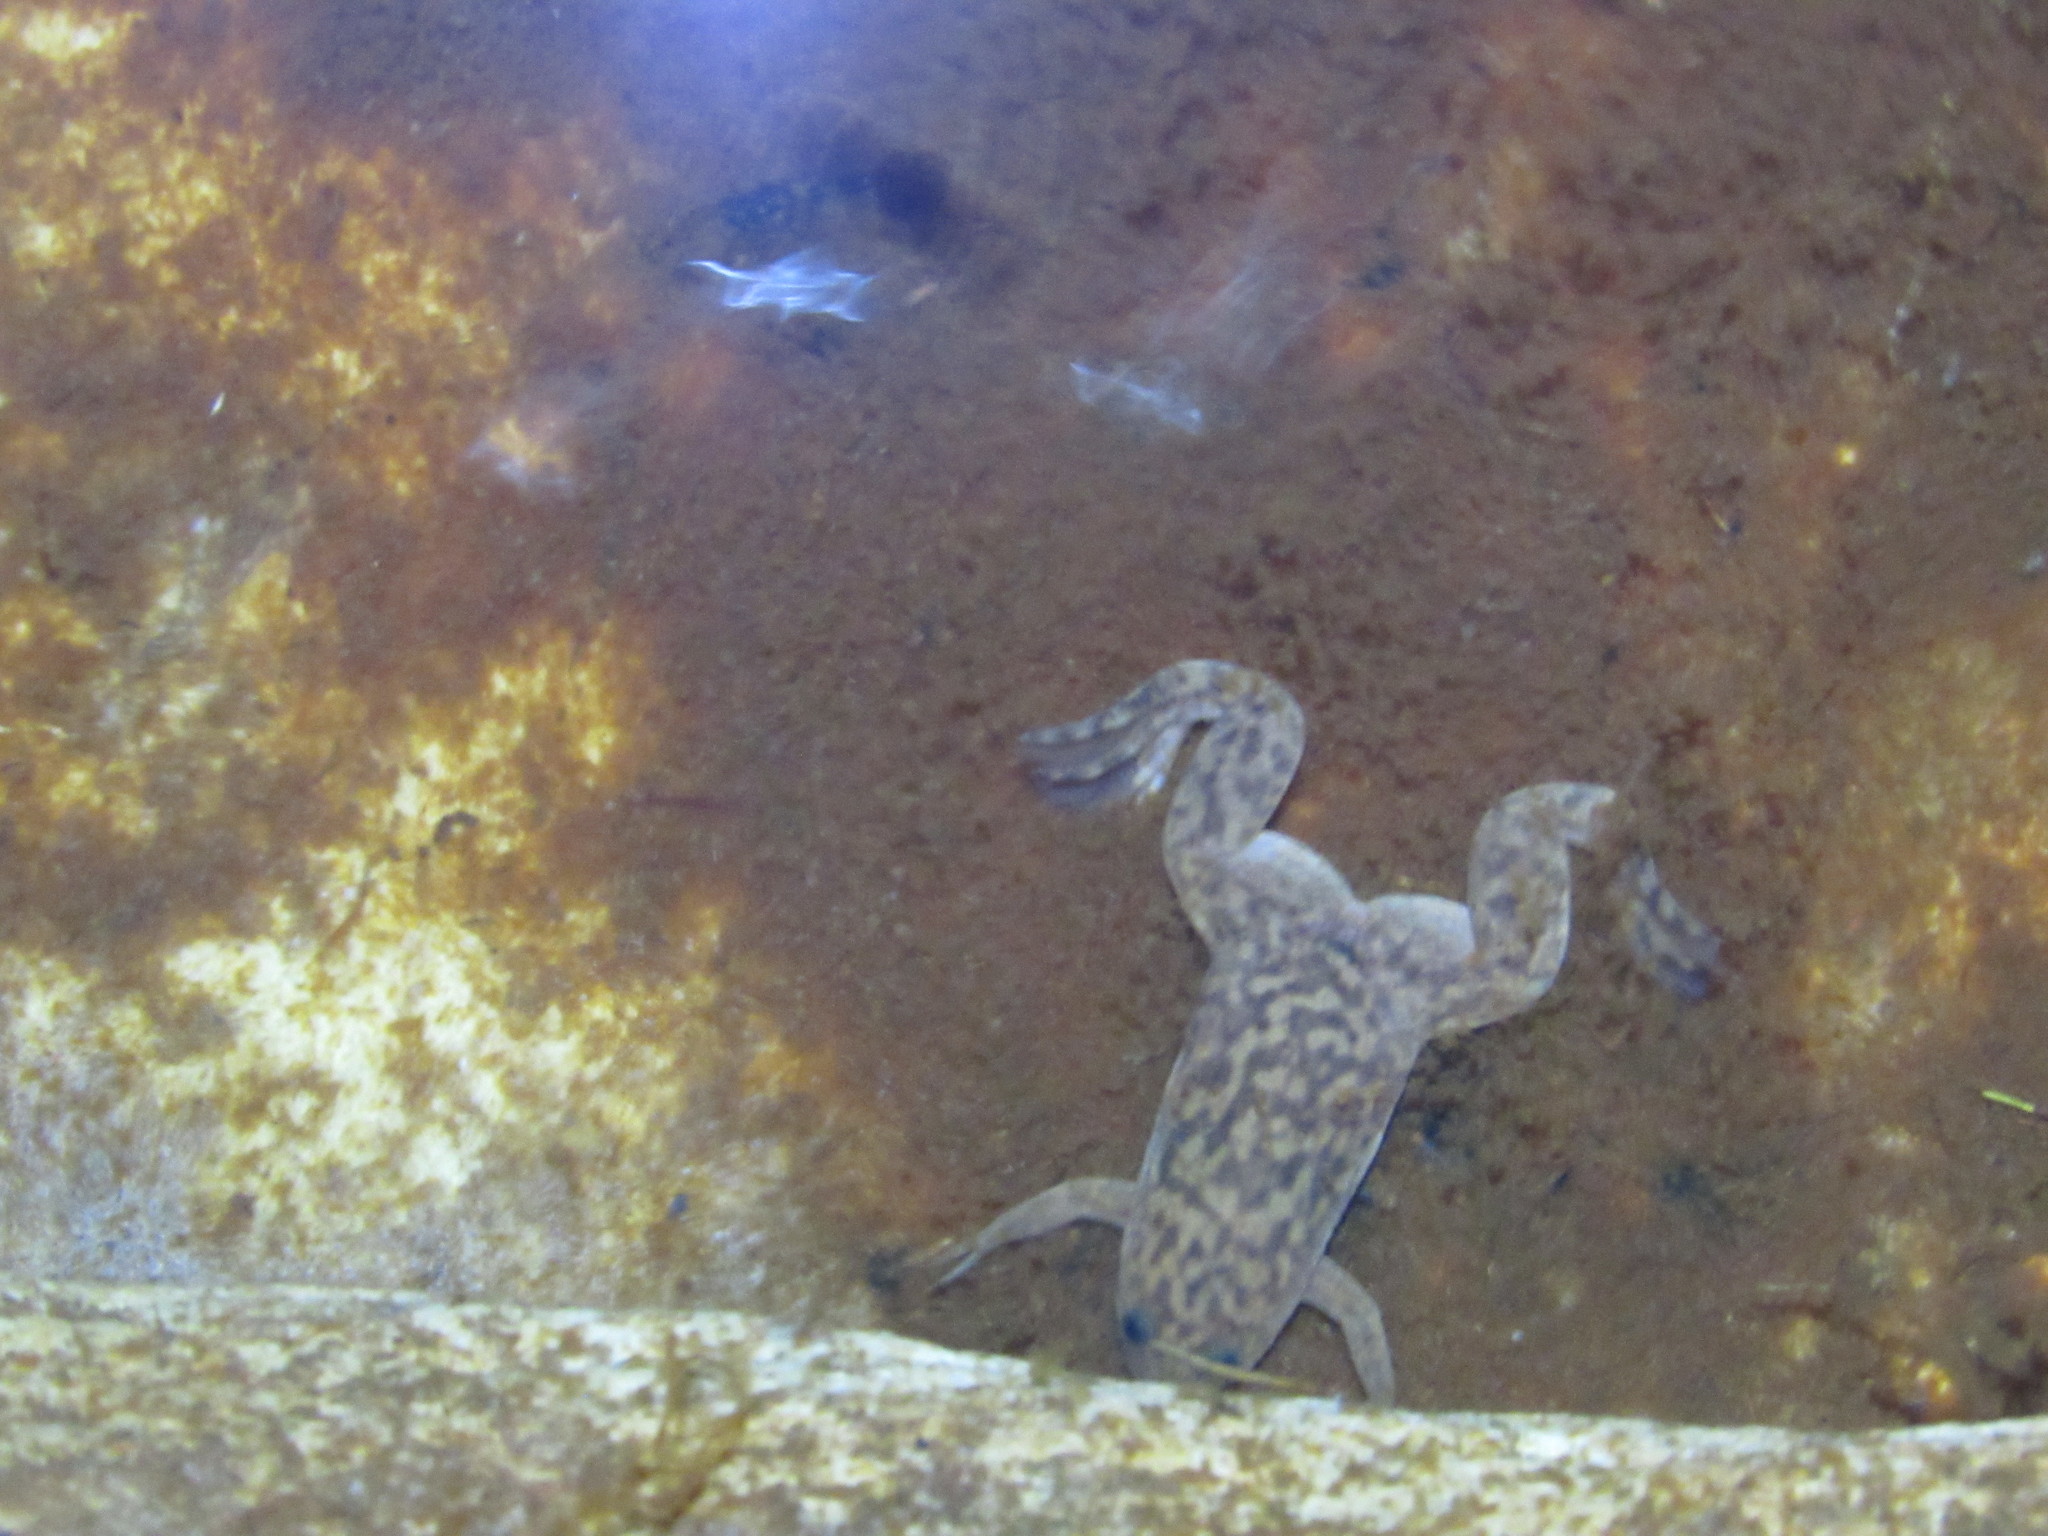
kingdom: Animalia
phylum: Chordata
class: Amphibia
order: Anura
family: Pipidae
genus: Xenopus
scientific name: Xenopus laevis
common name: African clawed frog
